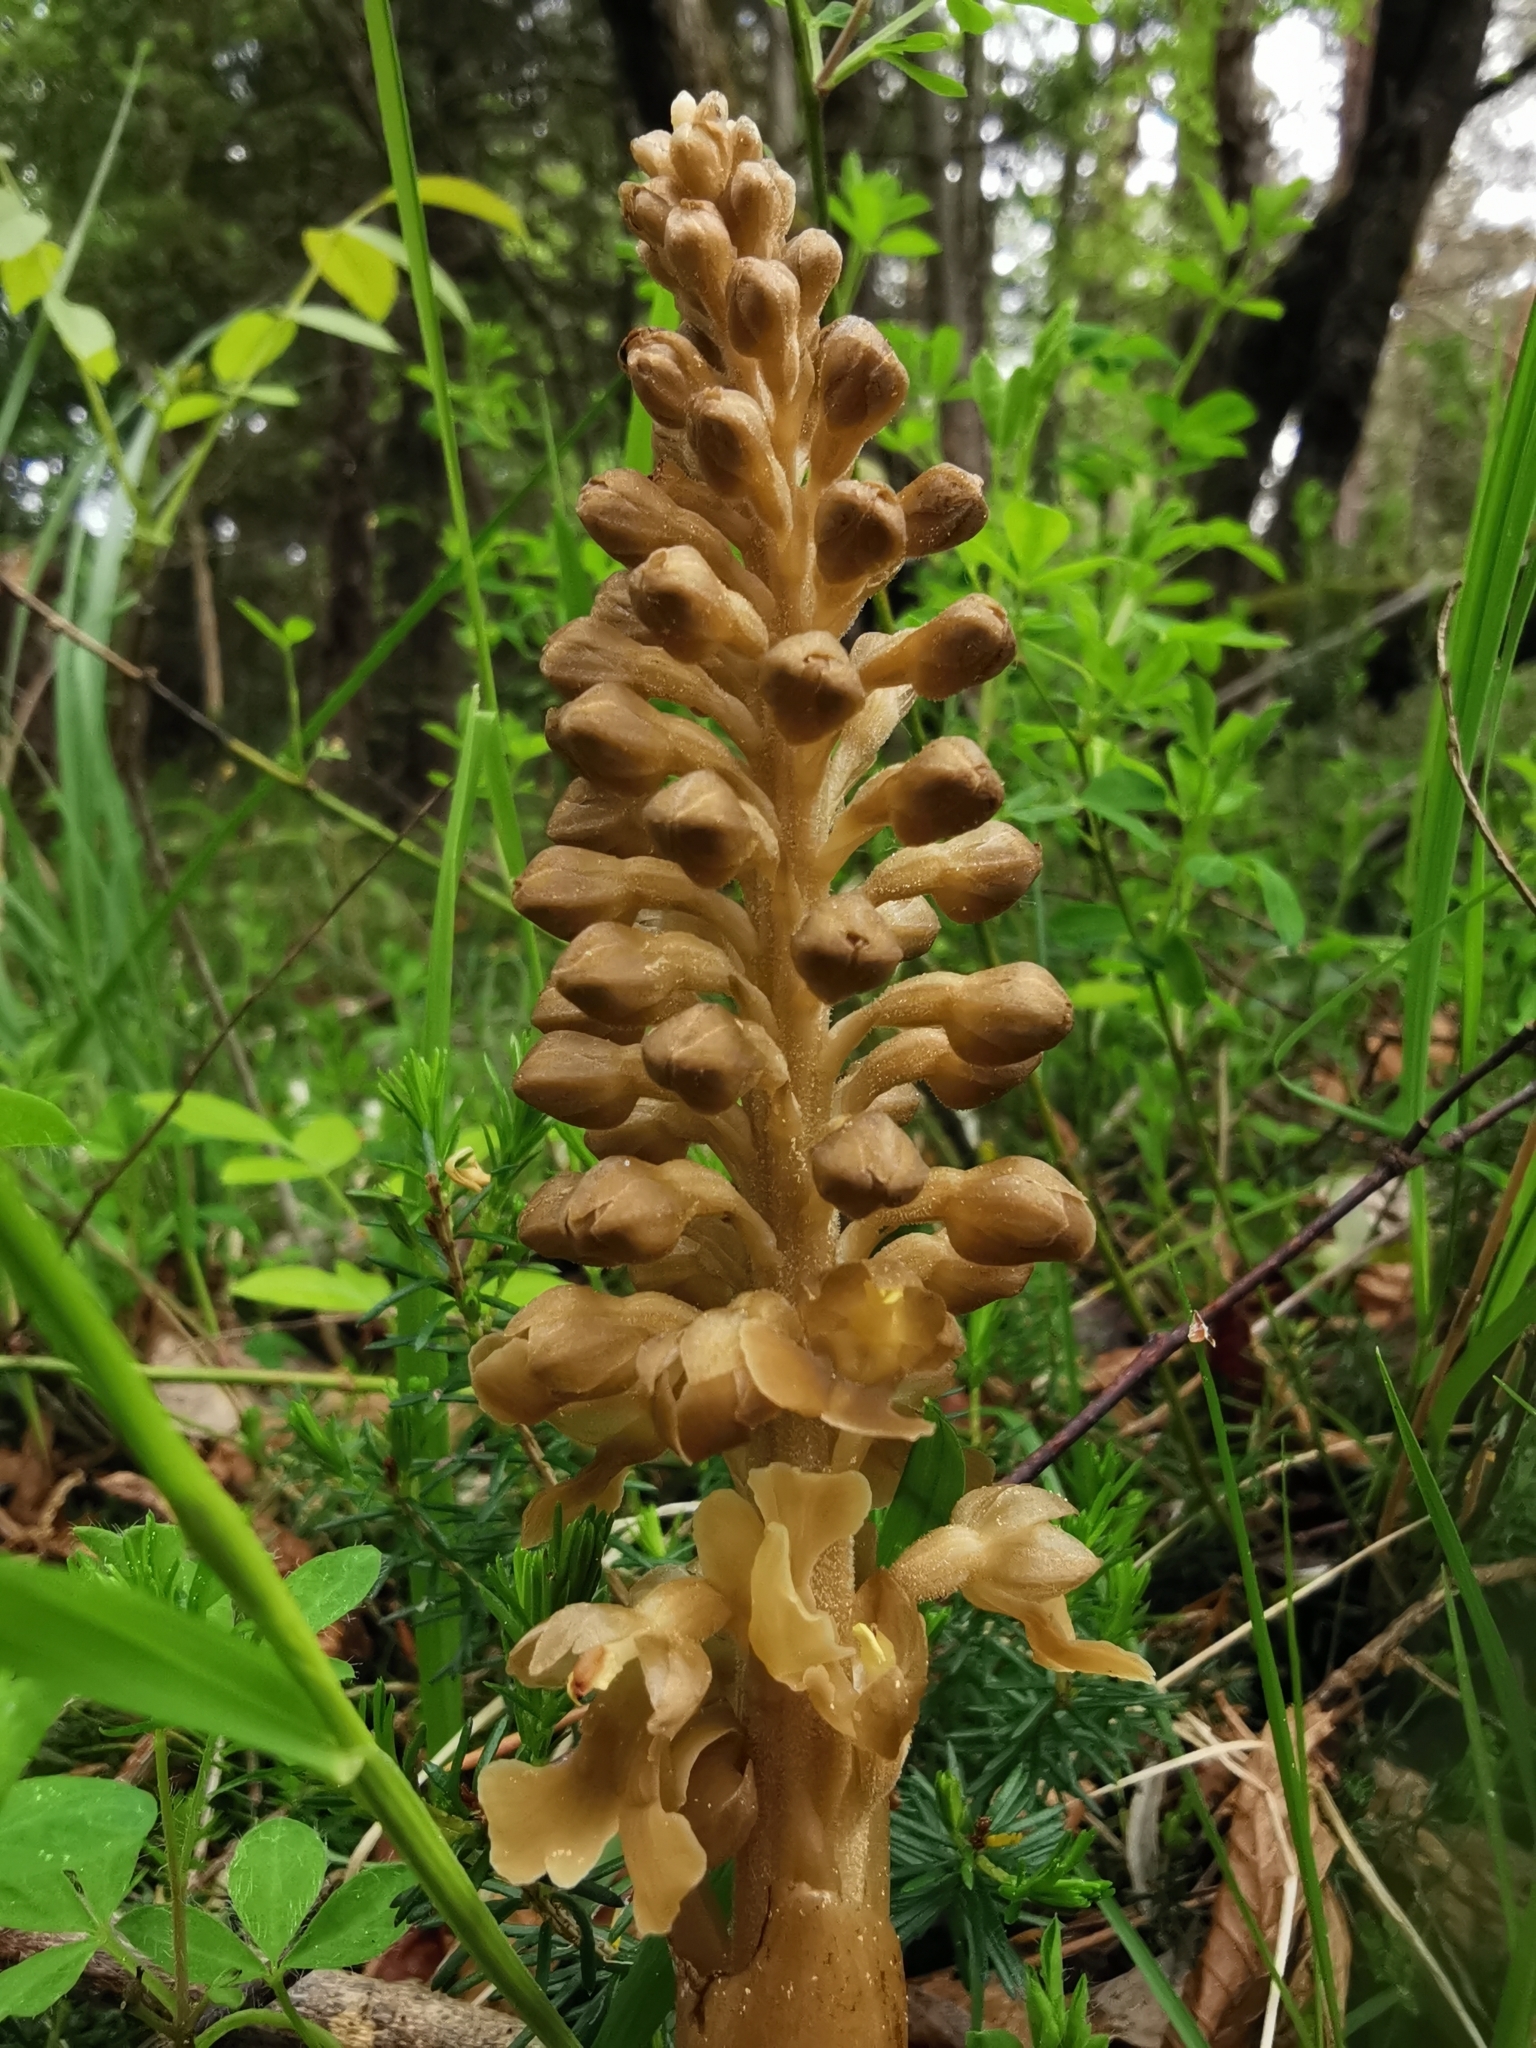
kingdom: Plantae
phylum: Tracheophyta
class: Liliopsida
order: Asparagales
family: Orchidaceae
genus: Neottia
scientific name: Neottia nidus-avis
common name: Bird's-nest orchid
